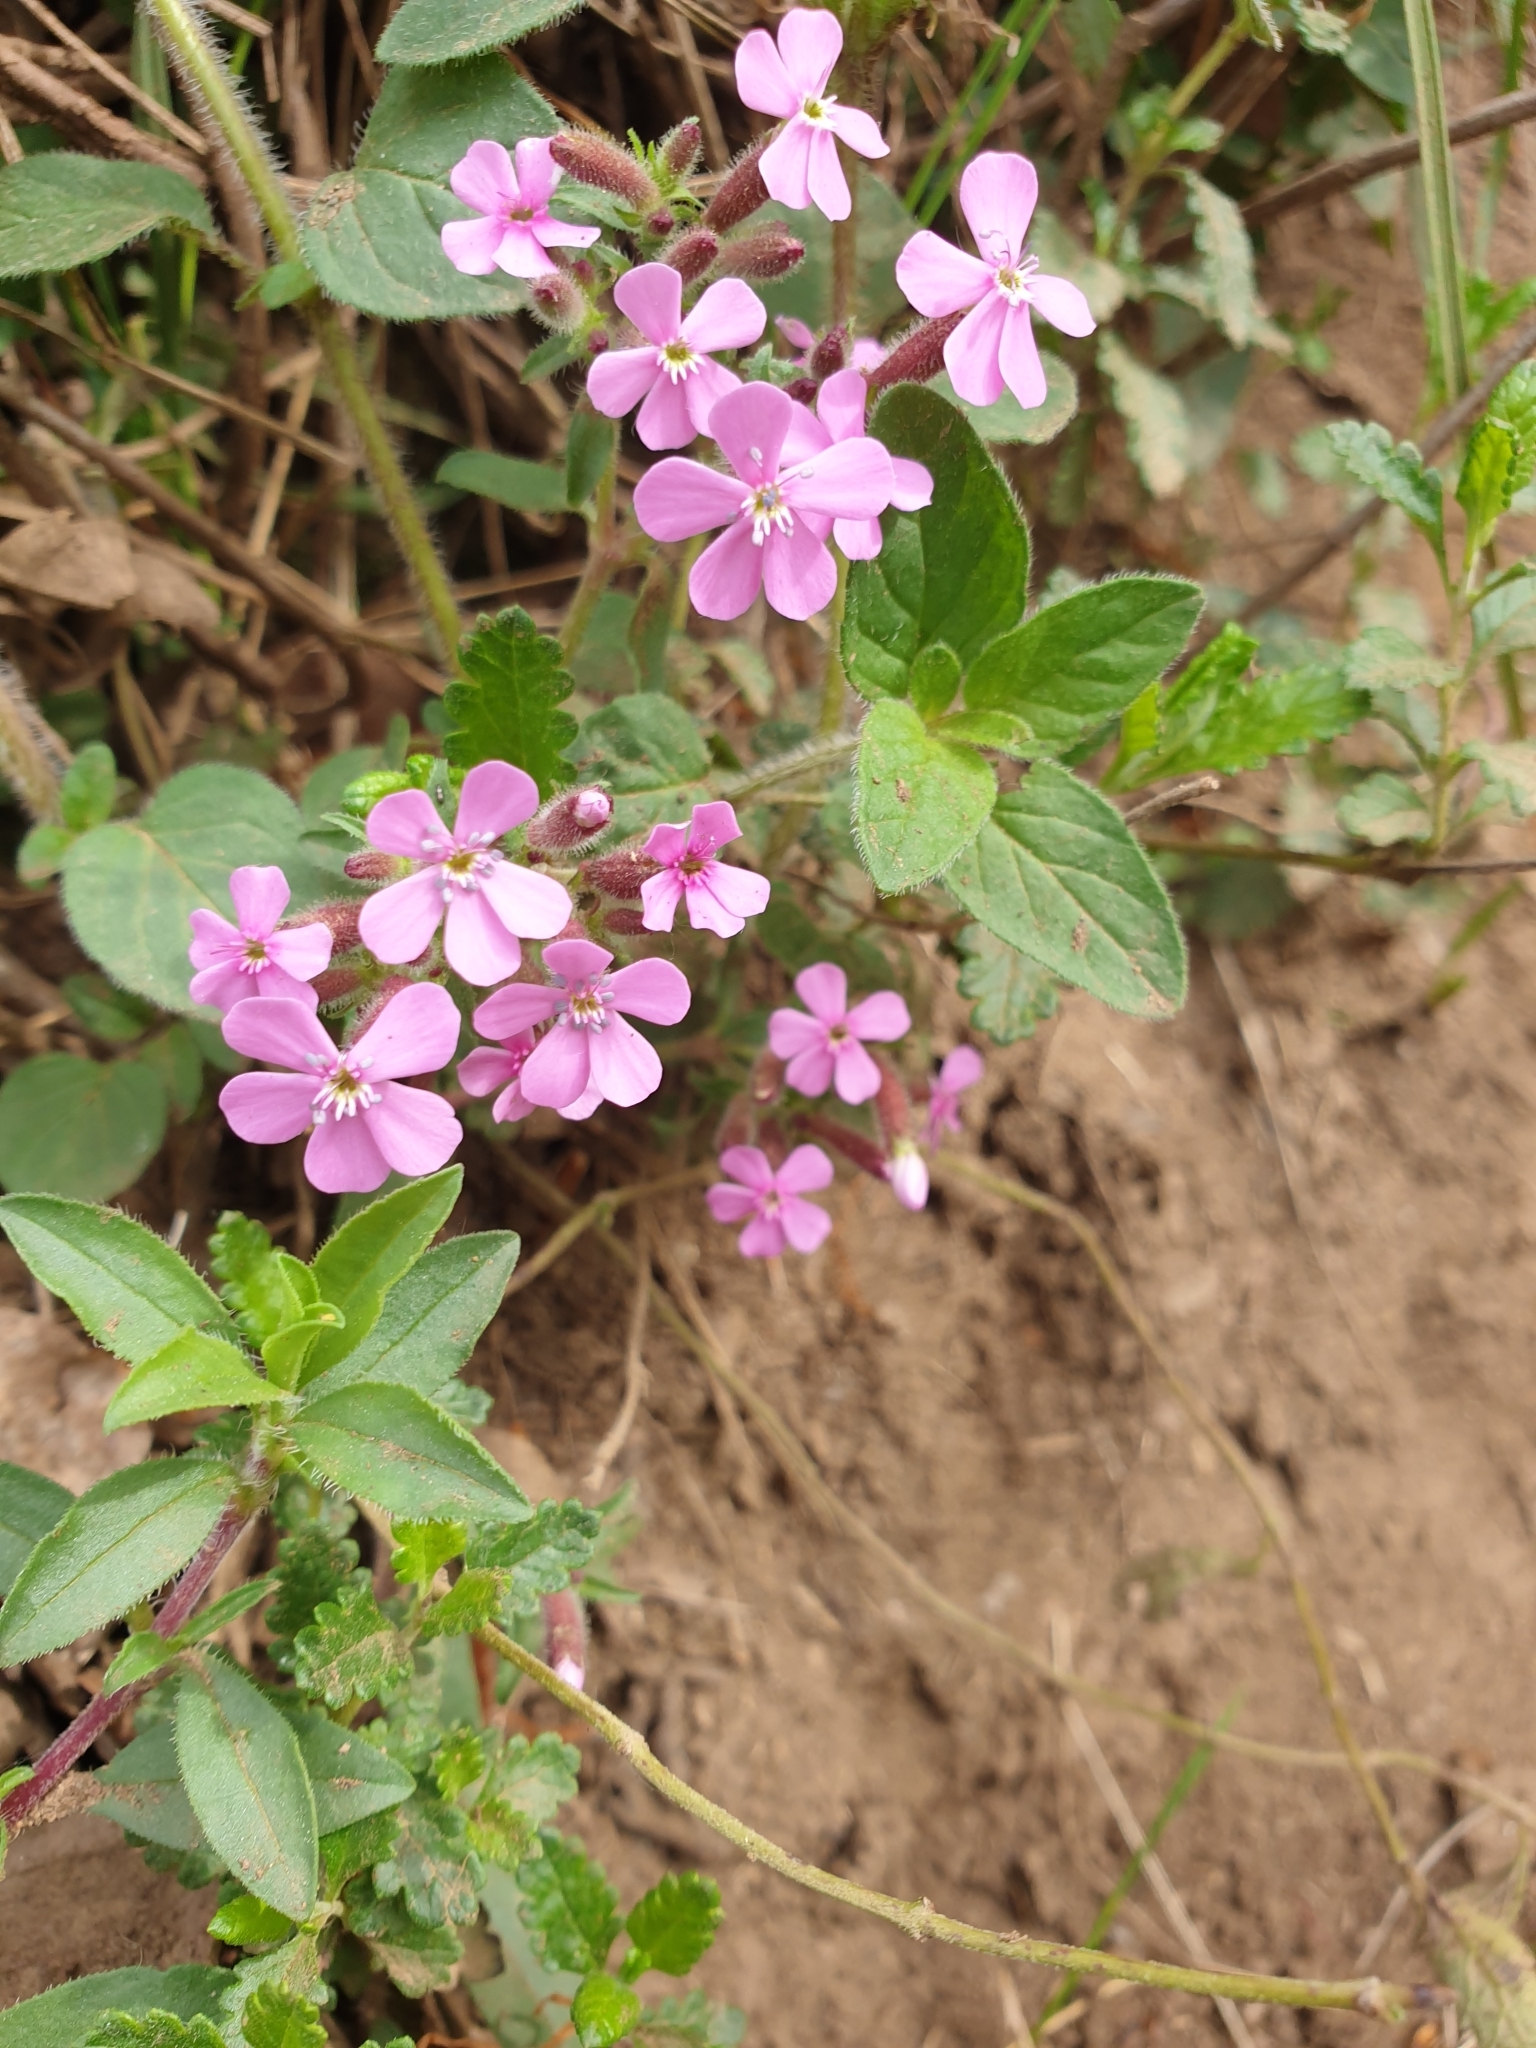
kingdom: Plantae
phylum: Tracheophyta
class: Magnoliopsida
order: Caryophyllales
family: Caryophyllaceae
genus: Saponaria
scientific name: Saponaria ocymoides
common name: Rock soapwort
